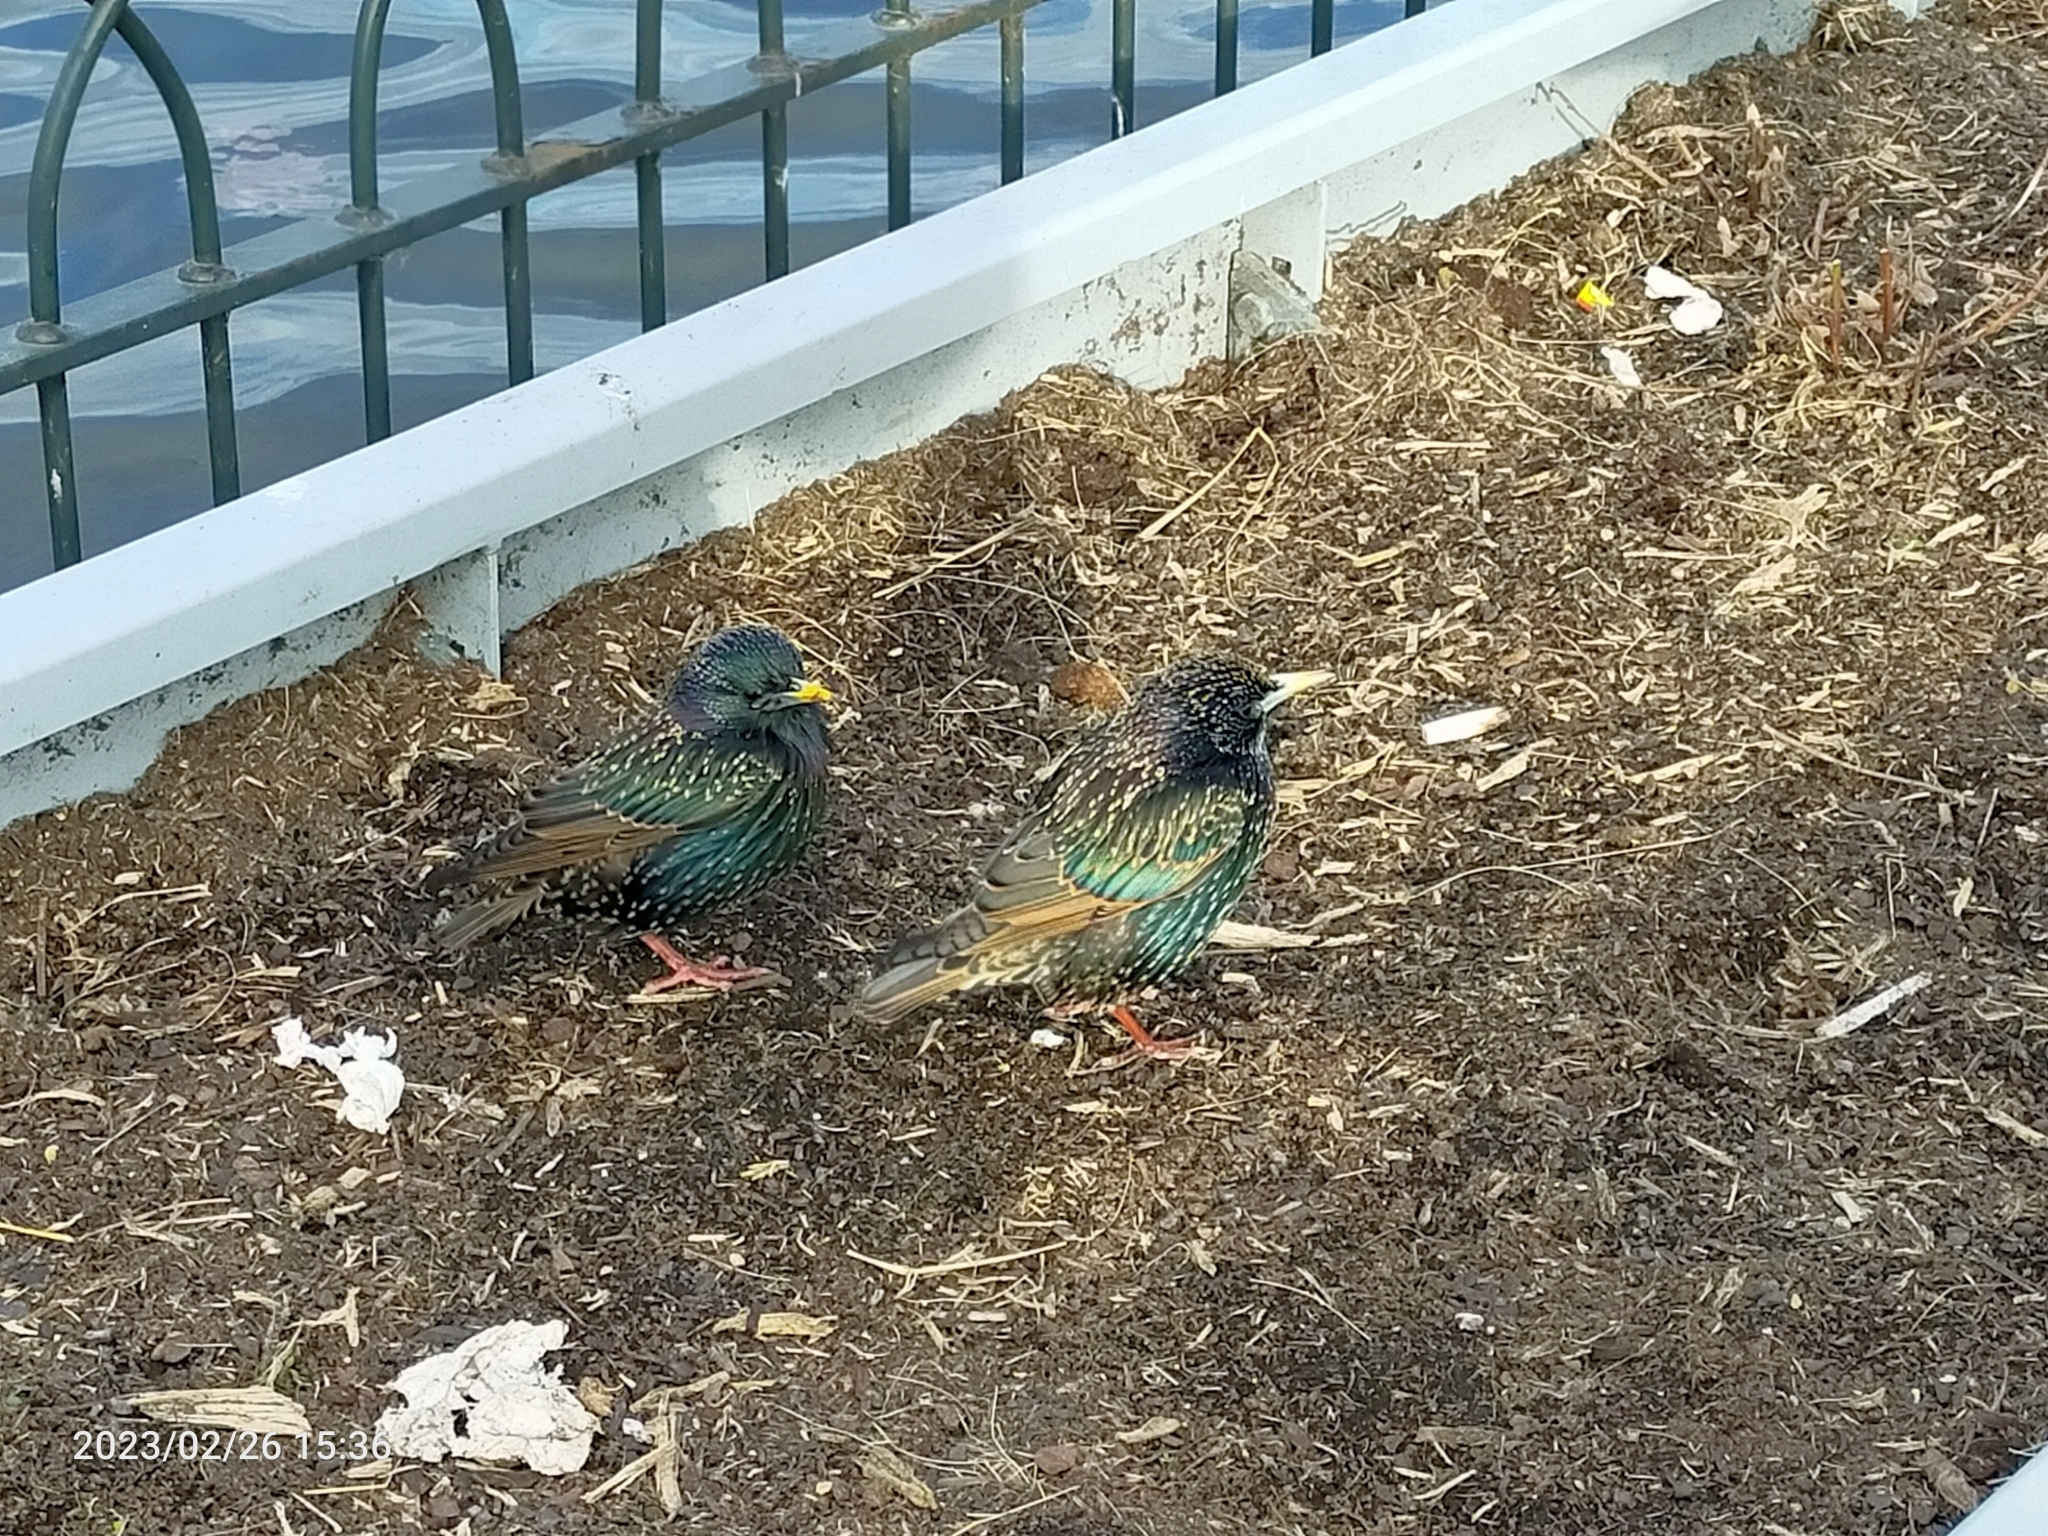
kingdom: Animalia
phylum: Chordata
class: Aves
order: Passeriformes
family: Sturnidae
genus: Sturnus
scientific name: Sturnus vulgaris
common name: Common starling
